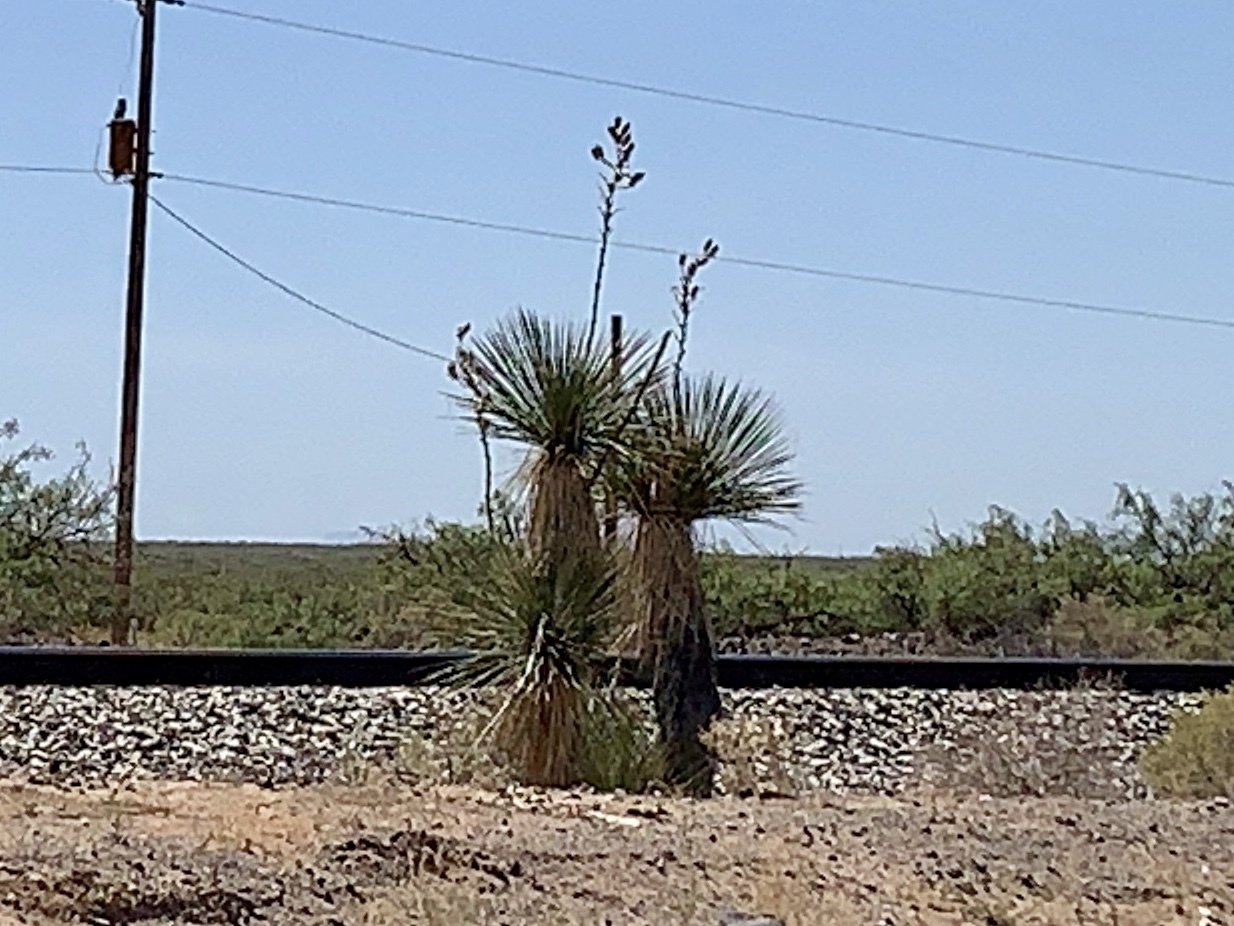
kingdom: Plantae
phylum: Tracheophyta
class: Liliopsida
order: Asparagales
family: Asparagaceae
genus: Yucca
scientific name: Yucca elata
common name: Palmella
